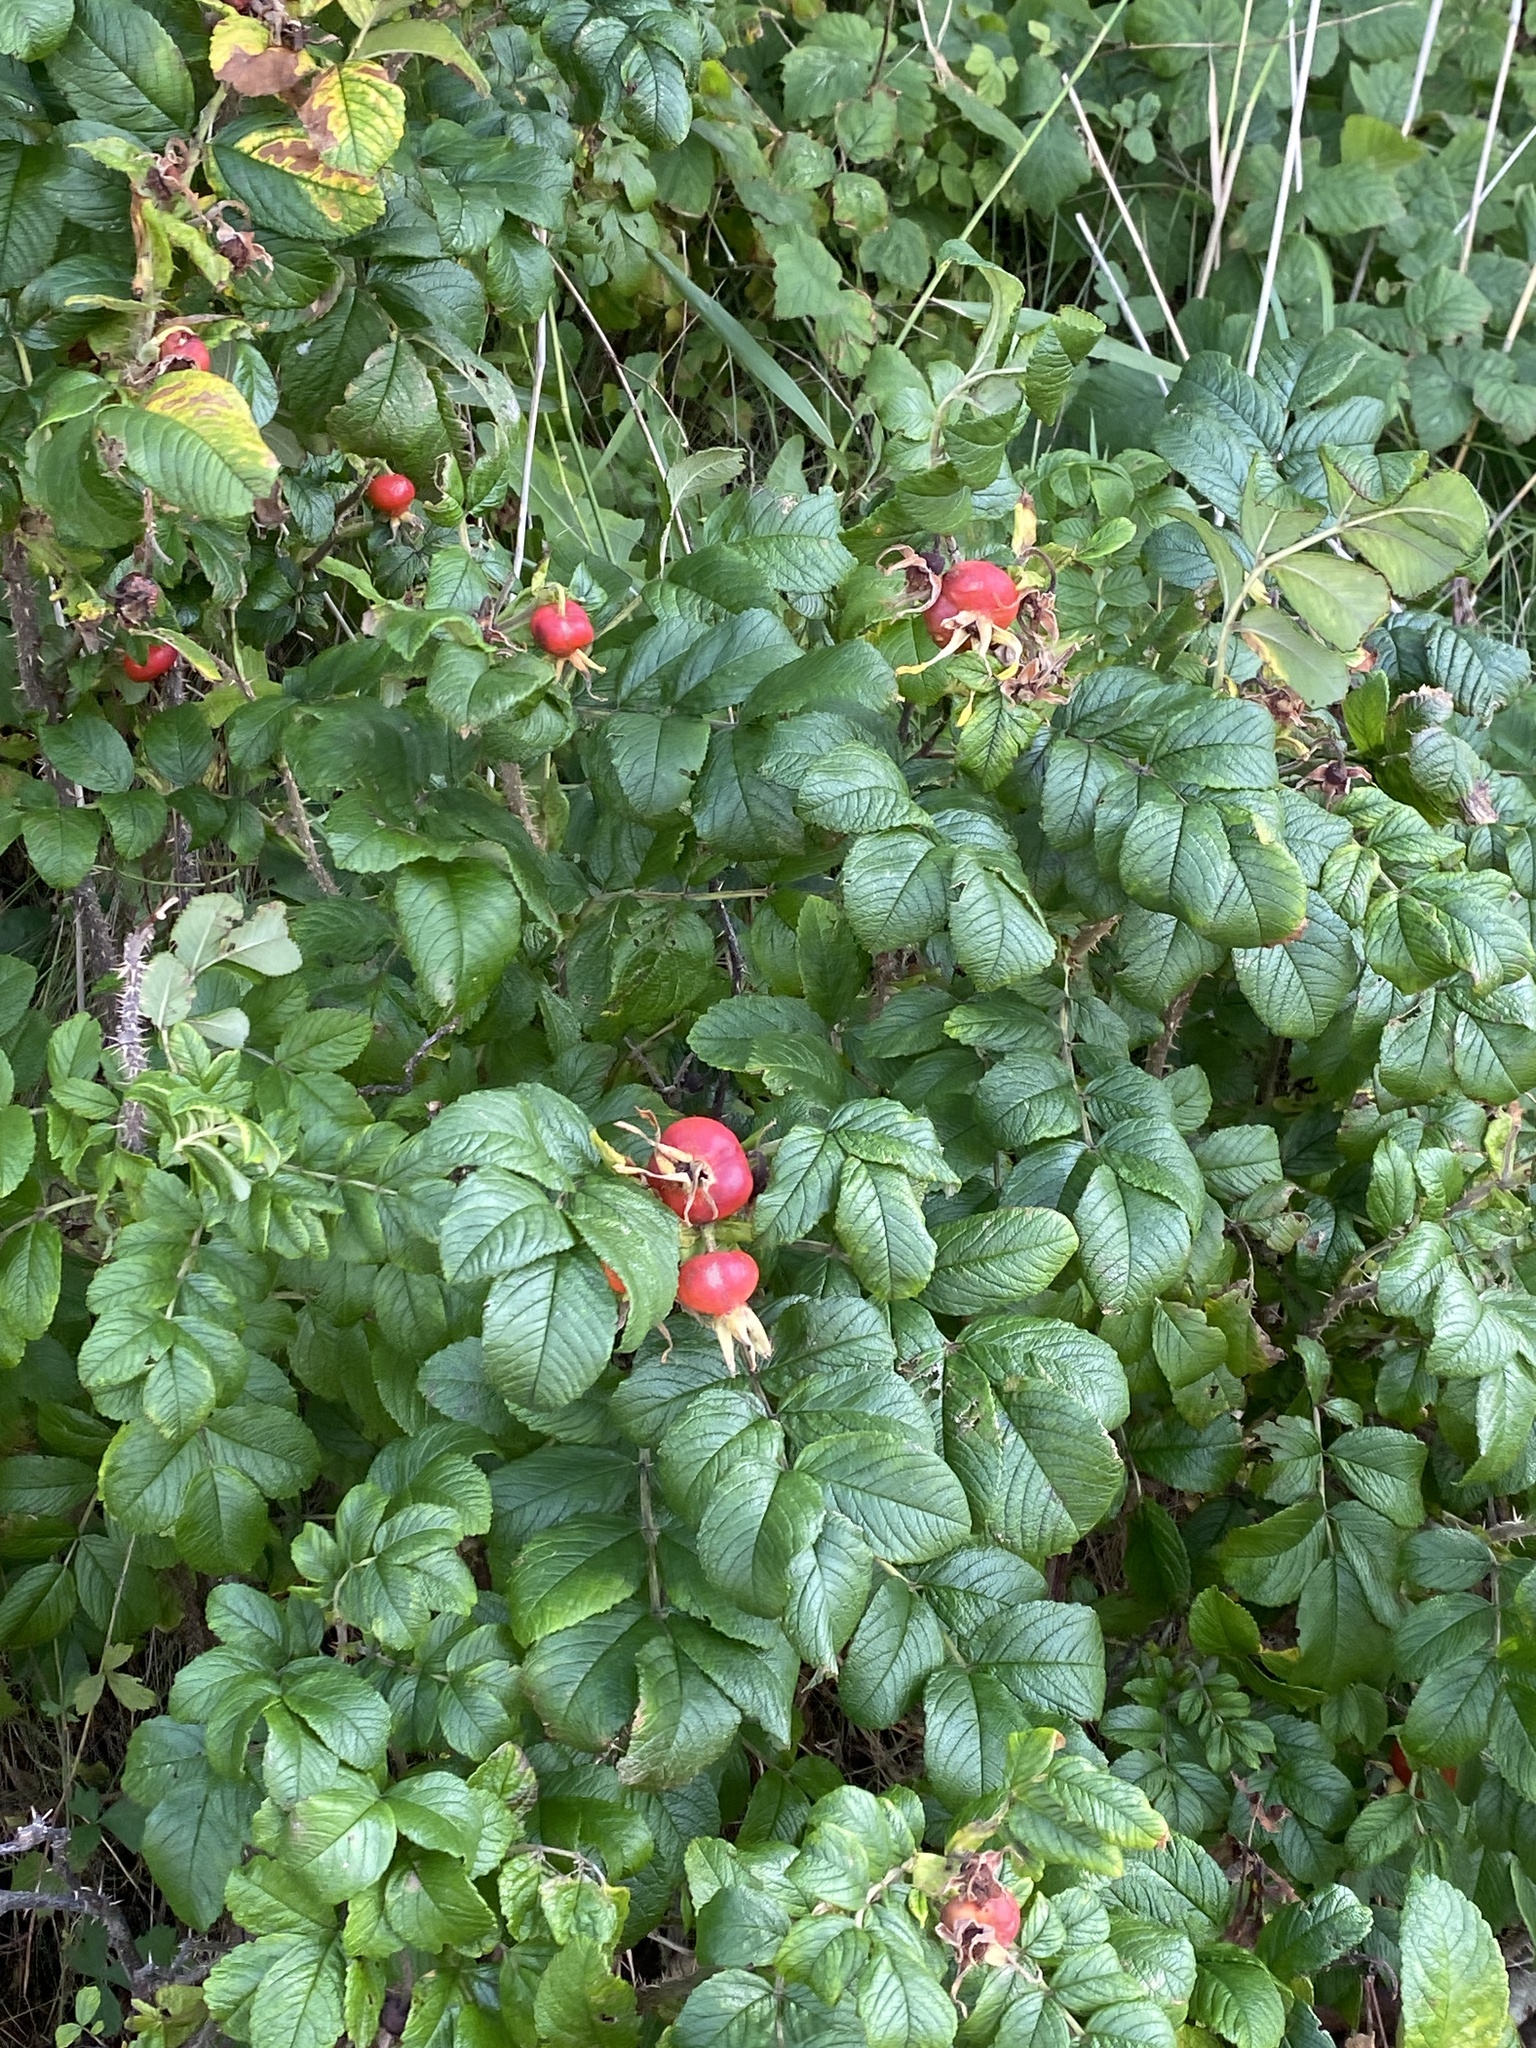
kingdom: Plantae
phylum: Tracheophyta
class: Magnoliopsida
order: Rosales
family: Rosaceae
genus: Rosa
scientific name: Rosa rugosa
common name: Japanese rose
